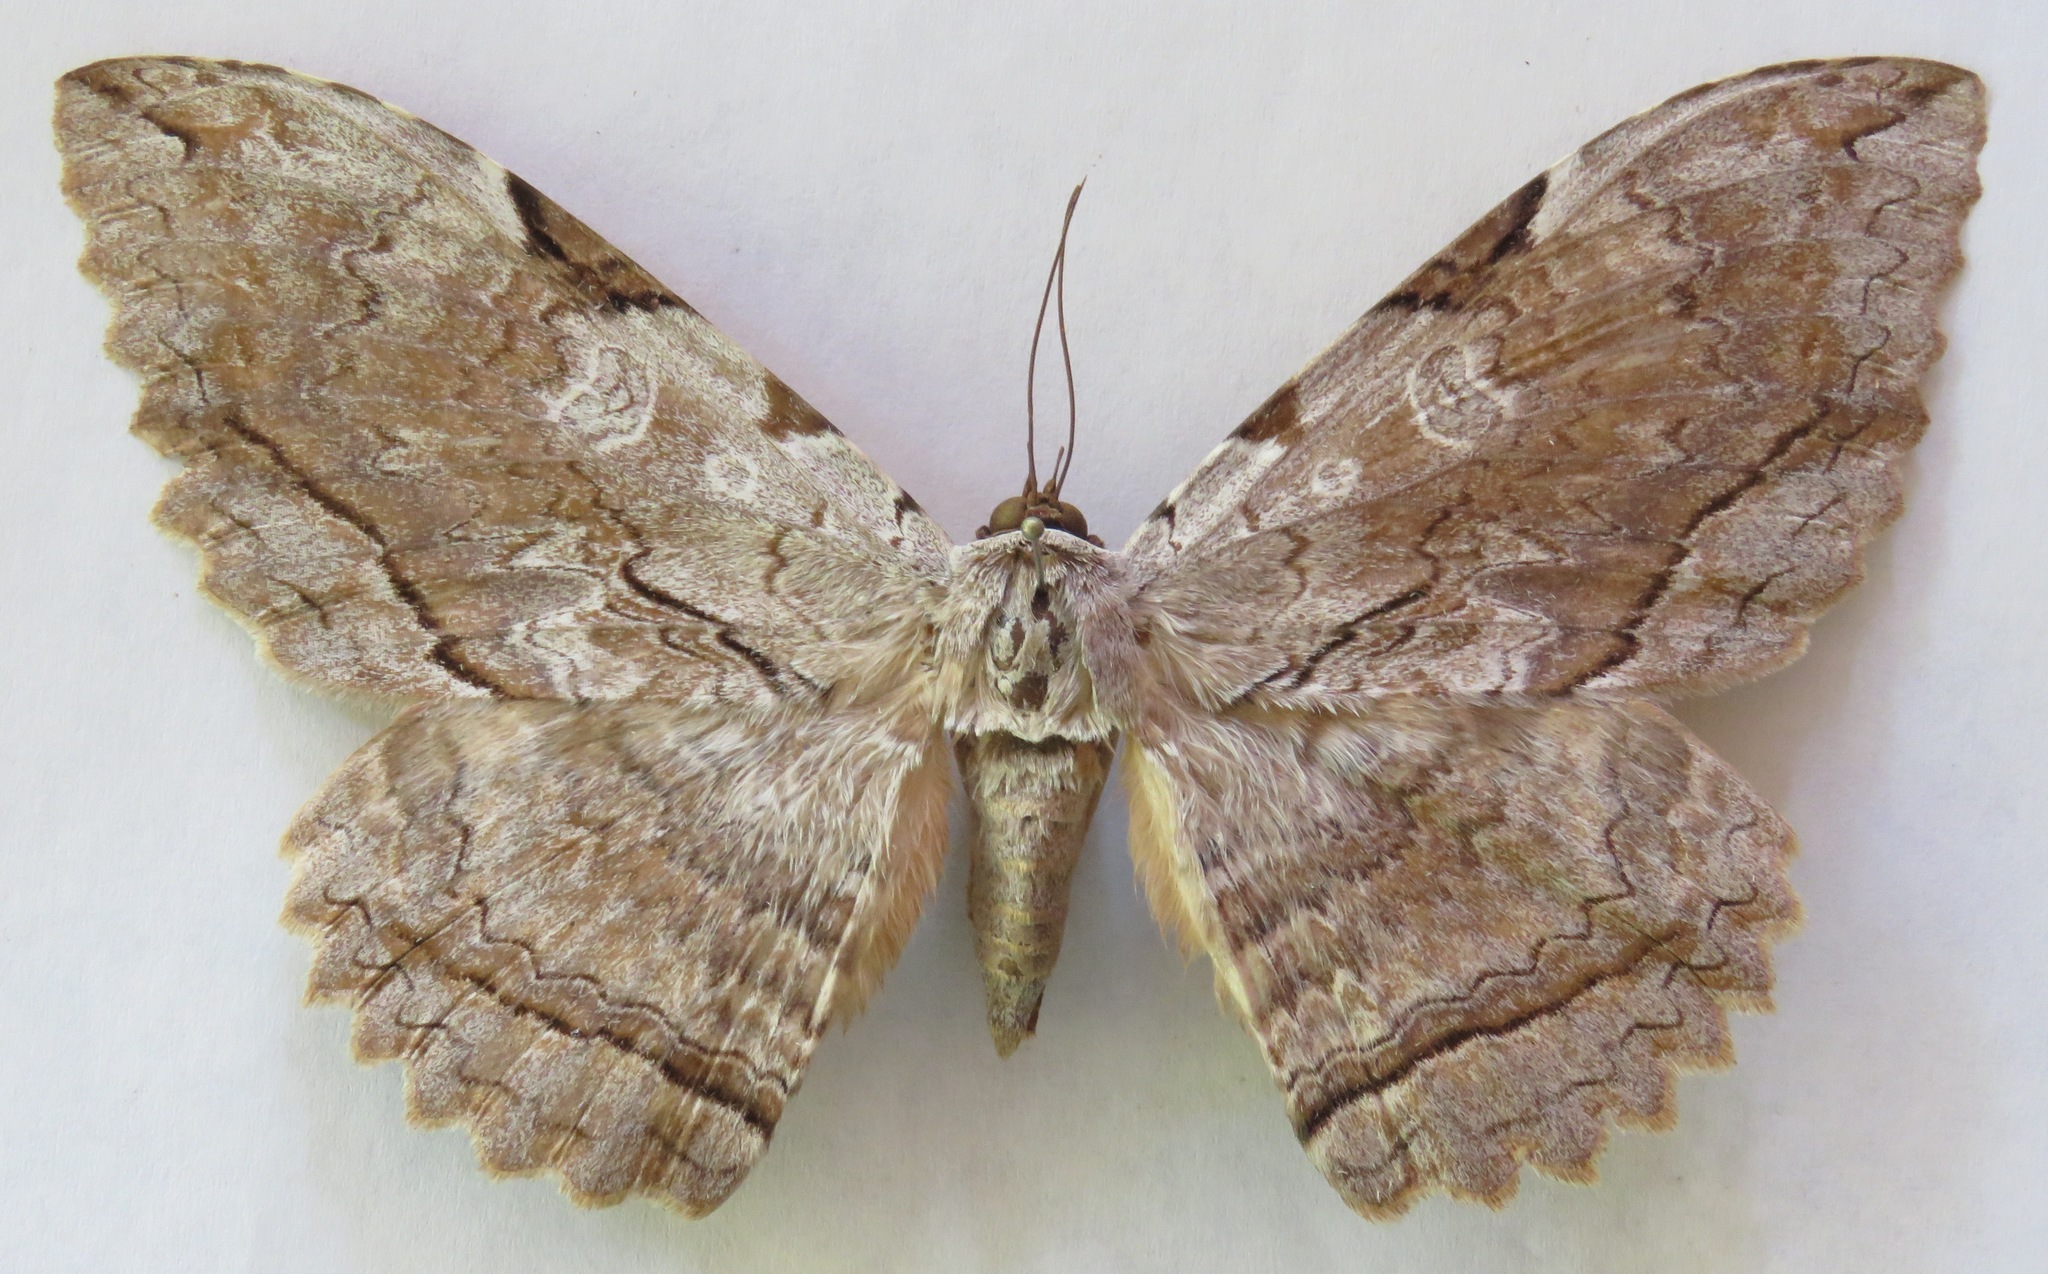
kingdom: Animalia
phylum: Arthropoda
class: Insecta
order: Lepidoptera
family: Erebidae
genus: Thysania
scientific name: Thysania zenobia
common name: Owl moth
